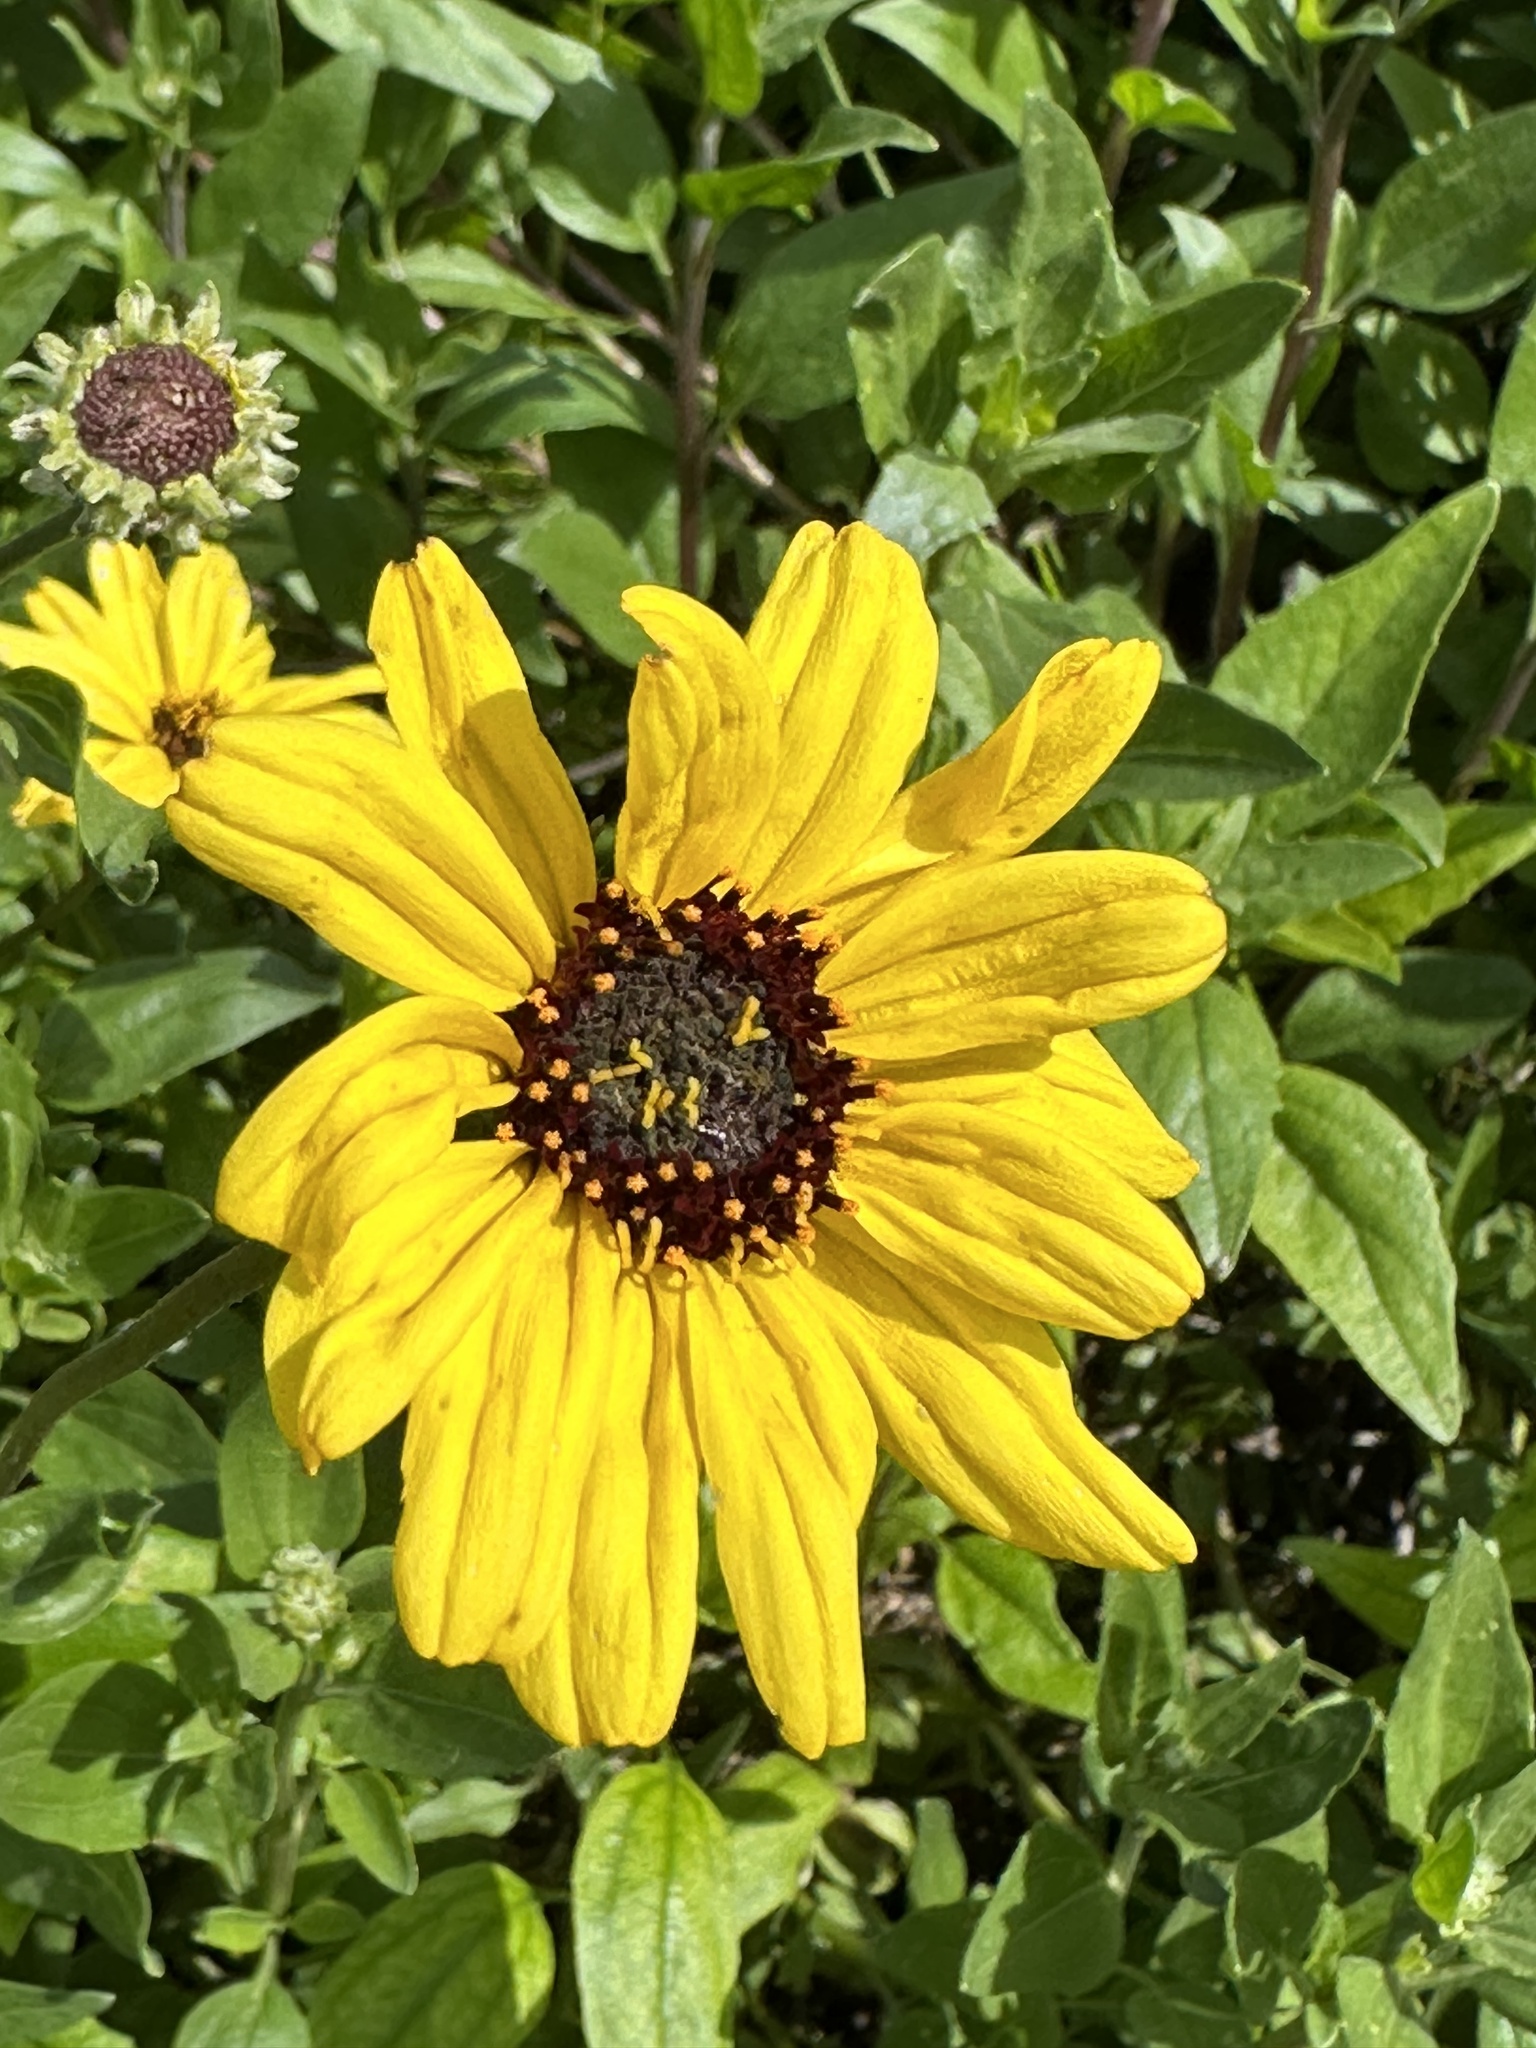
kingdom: Plantae
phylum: Tracheophyta
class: Magnoliopsida
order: Asterales
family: Asteraceae
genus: Encelia
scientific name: Encelia californica
